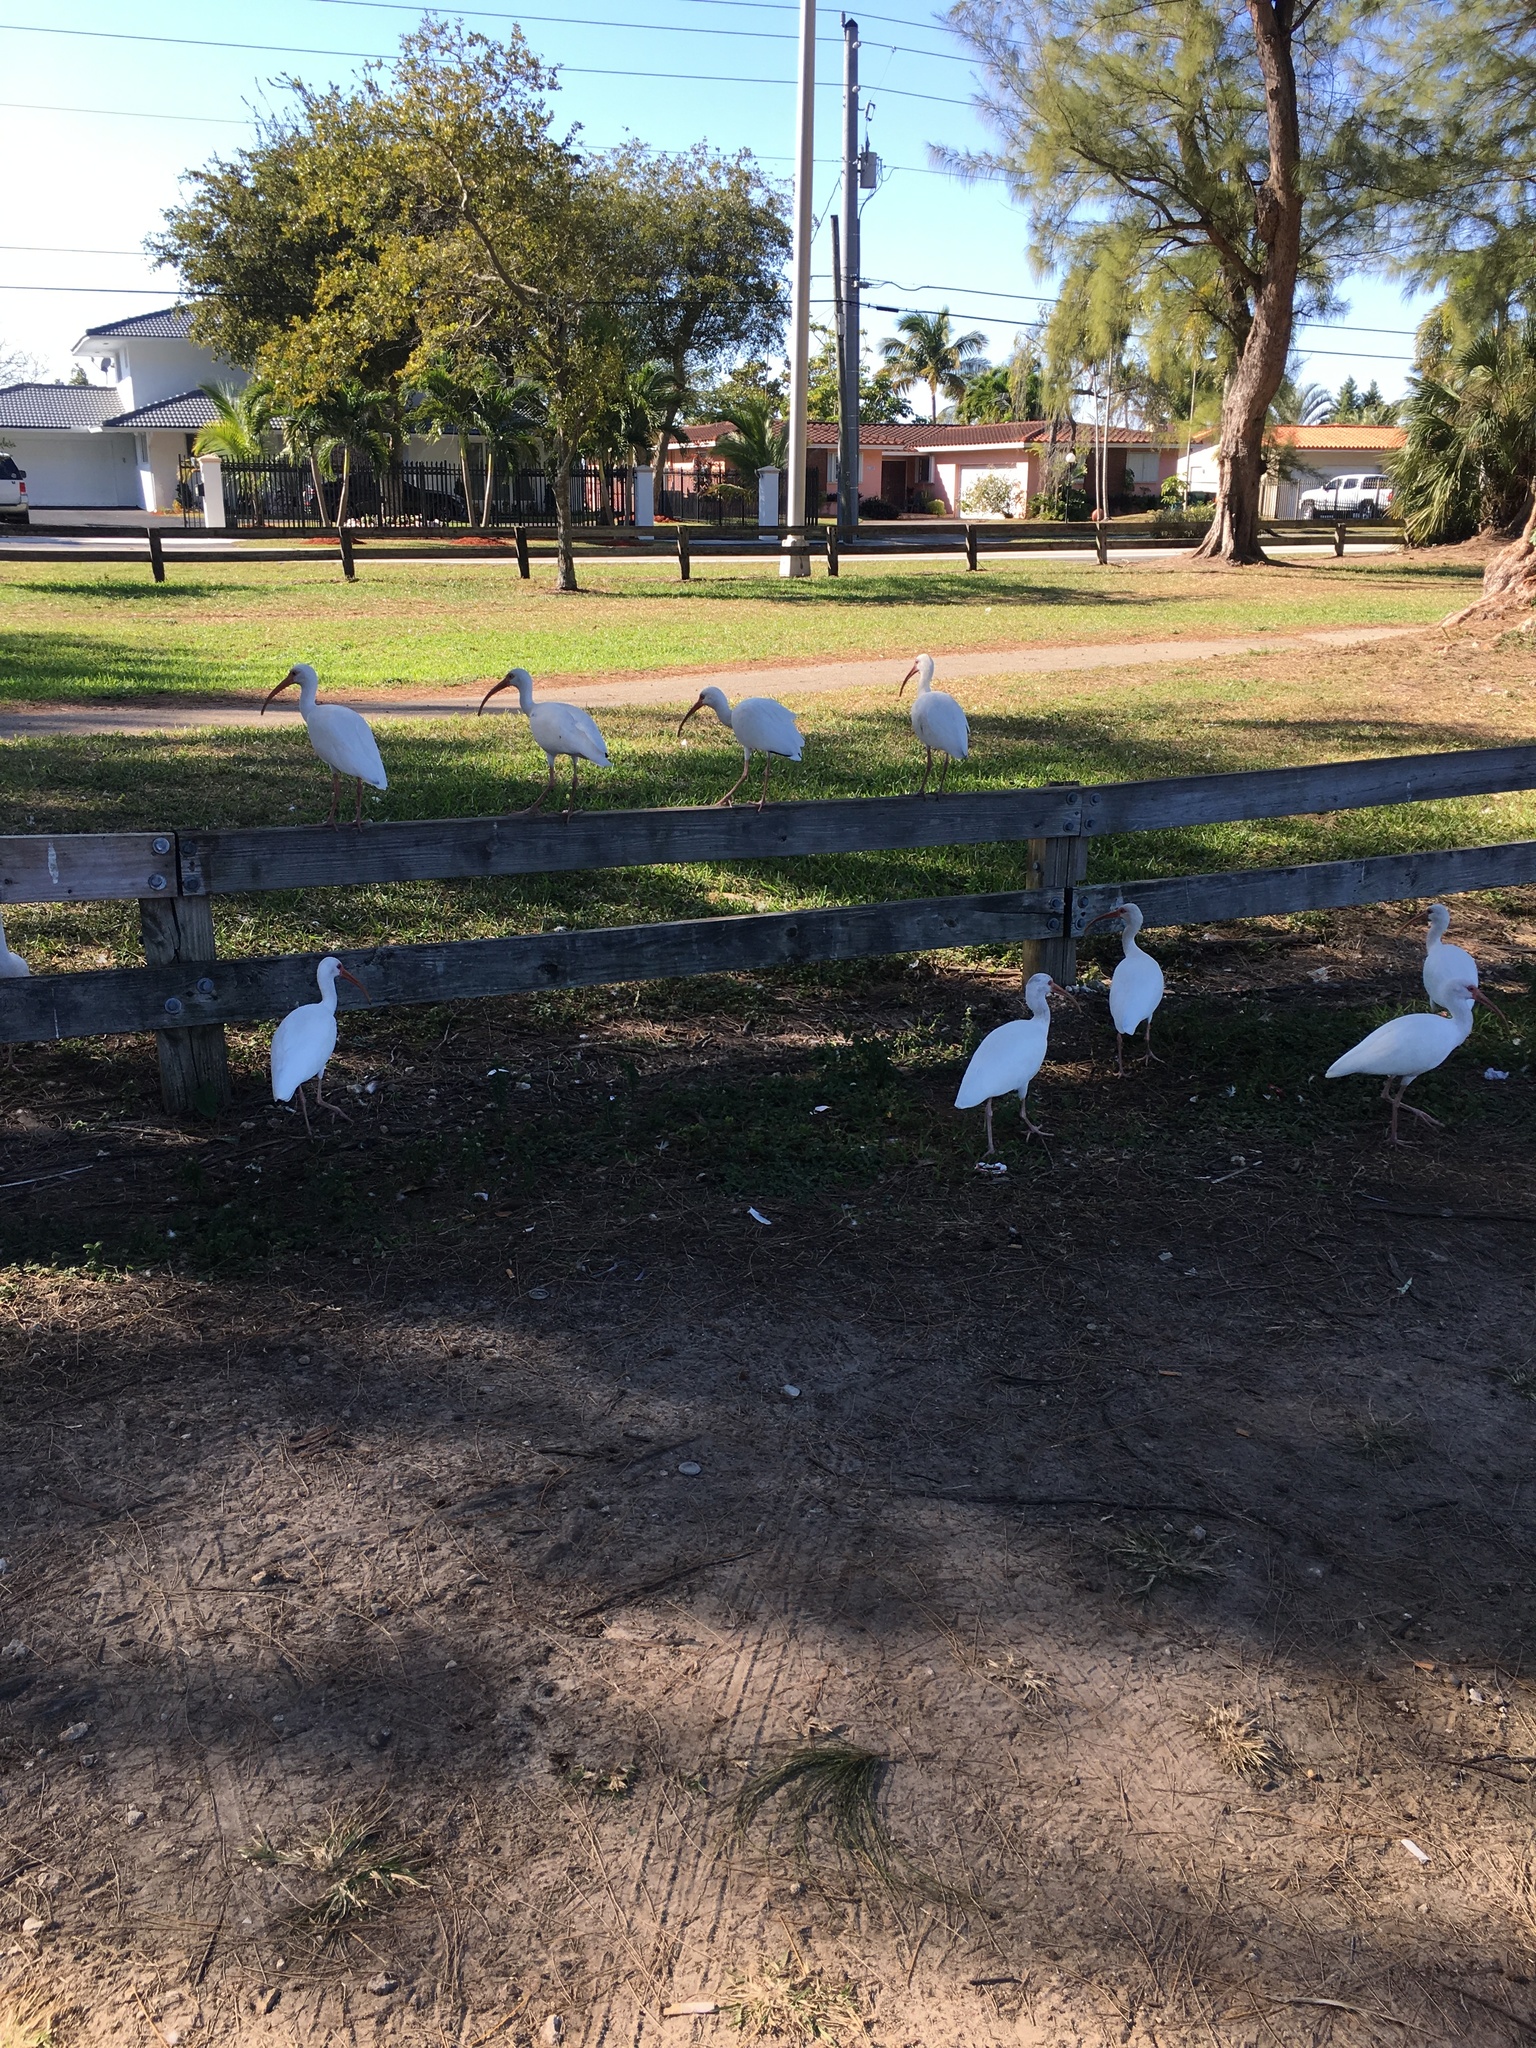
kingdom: Animalia
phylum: Chordata
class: Aves
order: Pelecaniformes
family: Threskiornithidae
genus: Eudocimus
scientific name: Eudocimus albus
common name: White ibis
